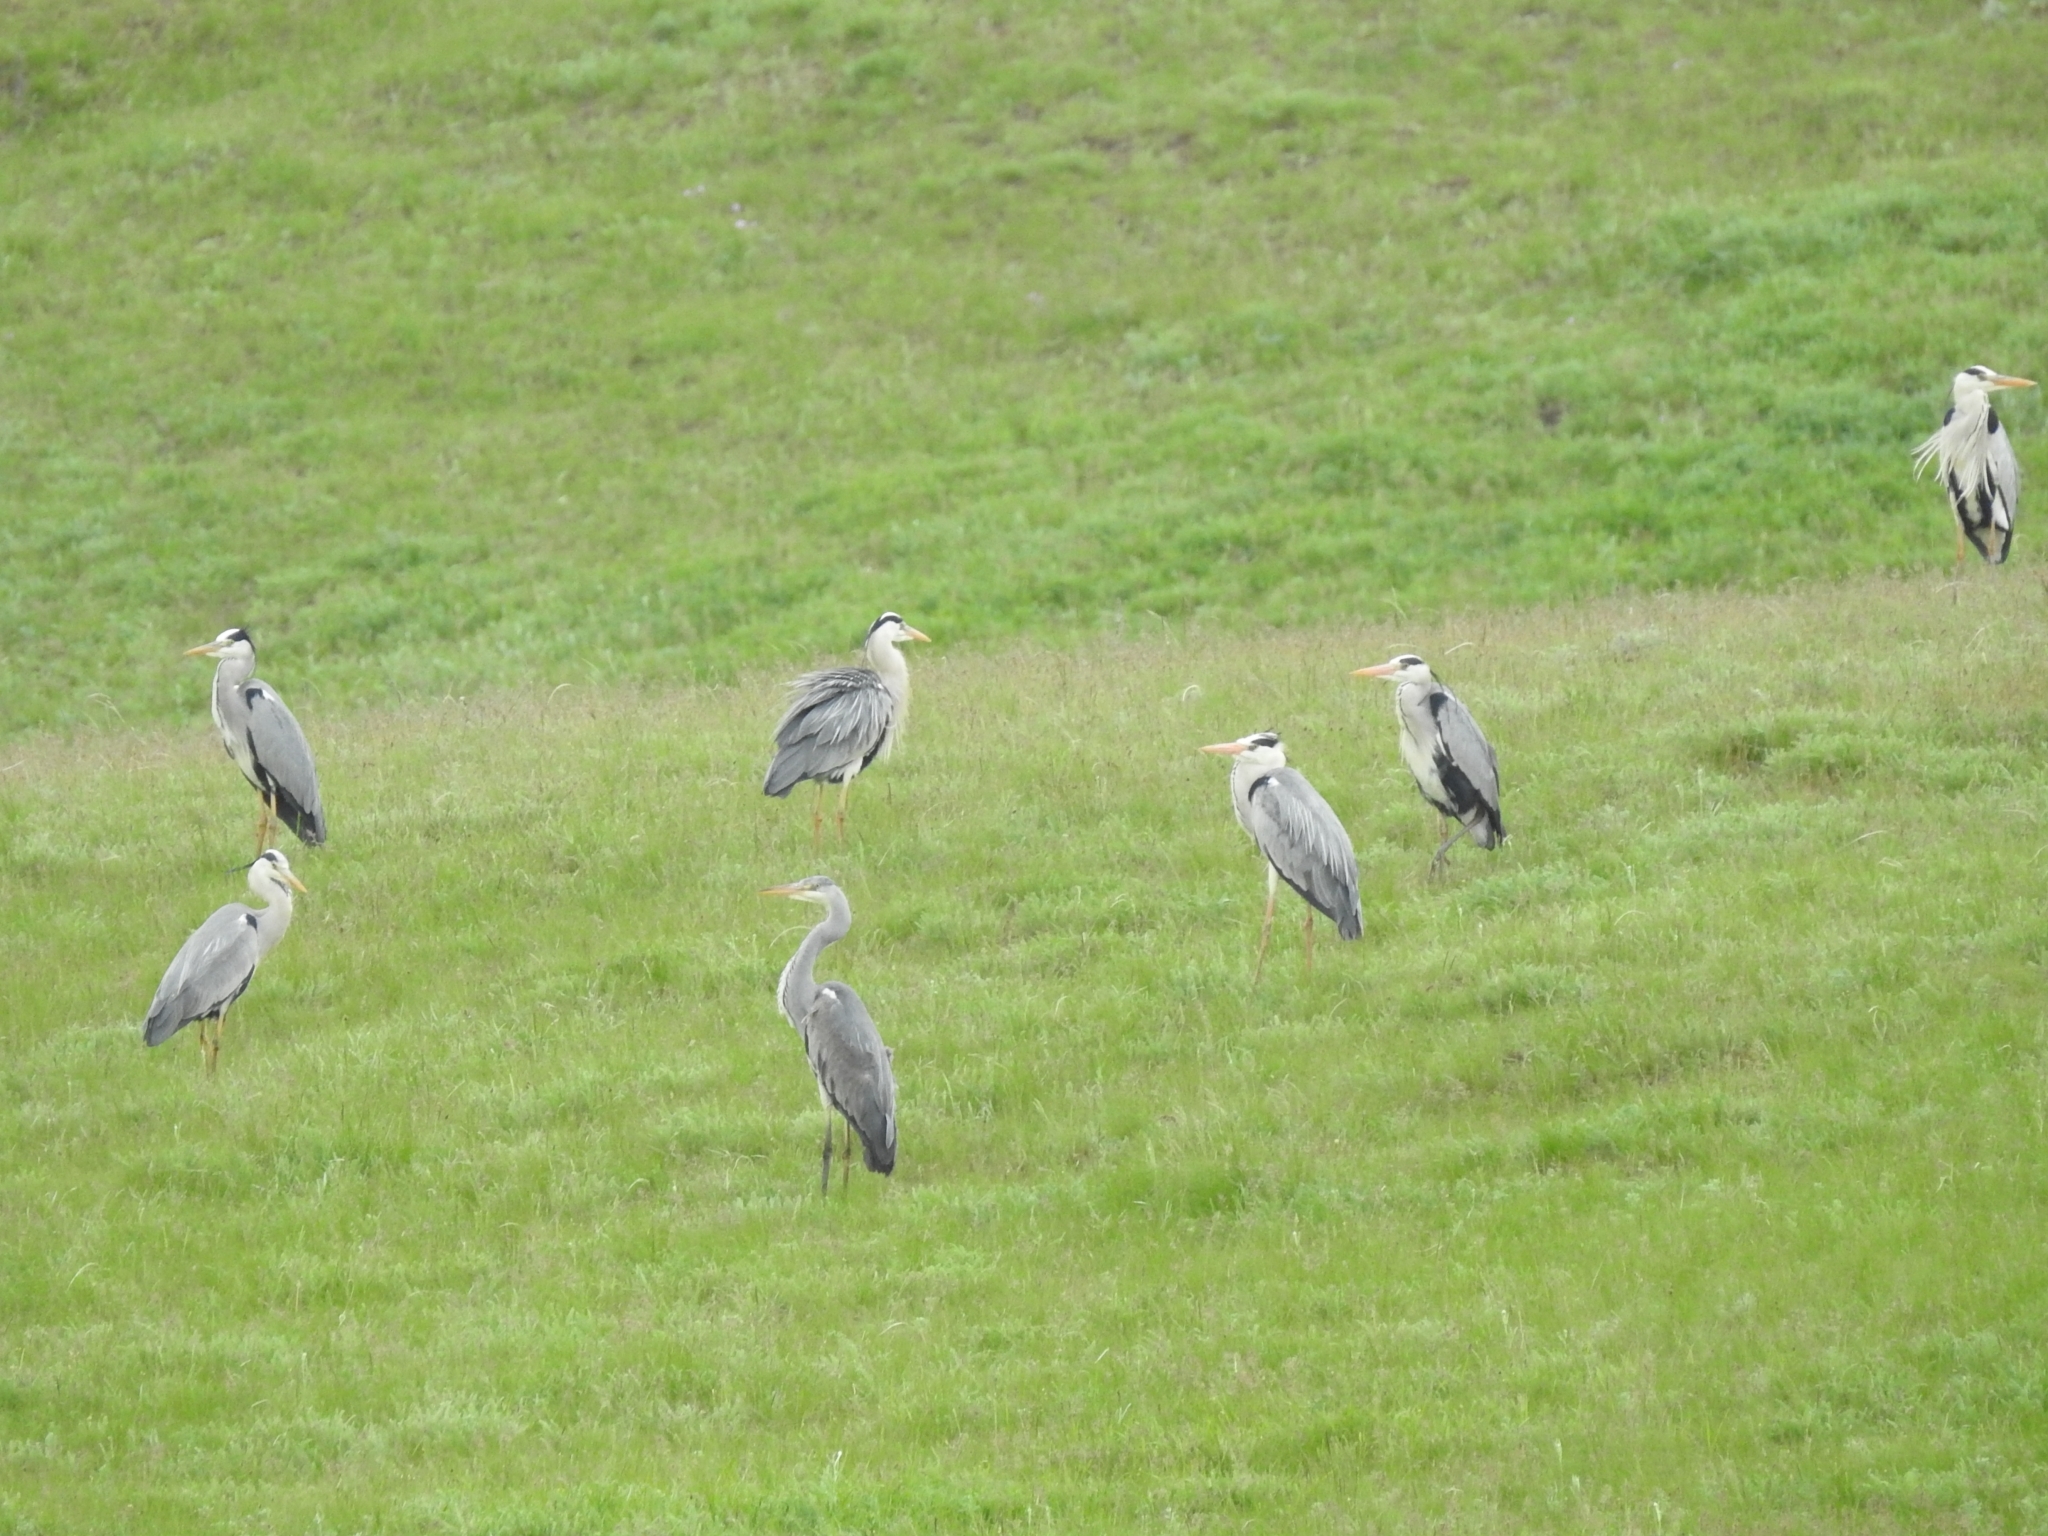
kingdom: Animalia
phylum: Chordata
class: Aves
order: Pelecaniformes
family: Ardeidae
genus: Ardea
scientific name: Ardea cinerea
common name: Grey heron
